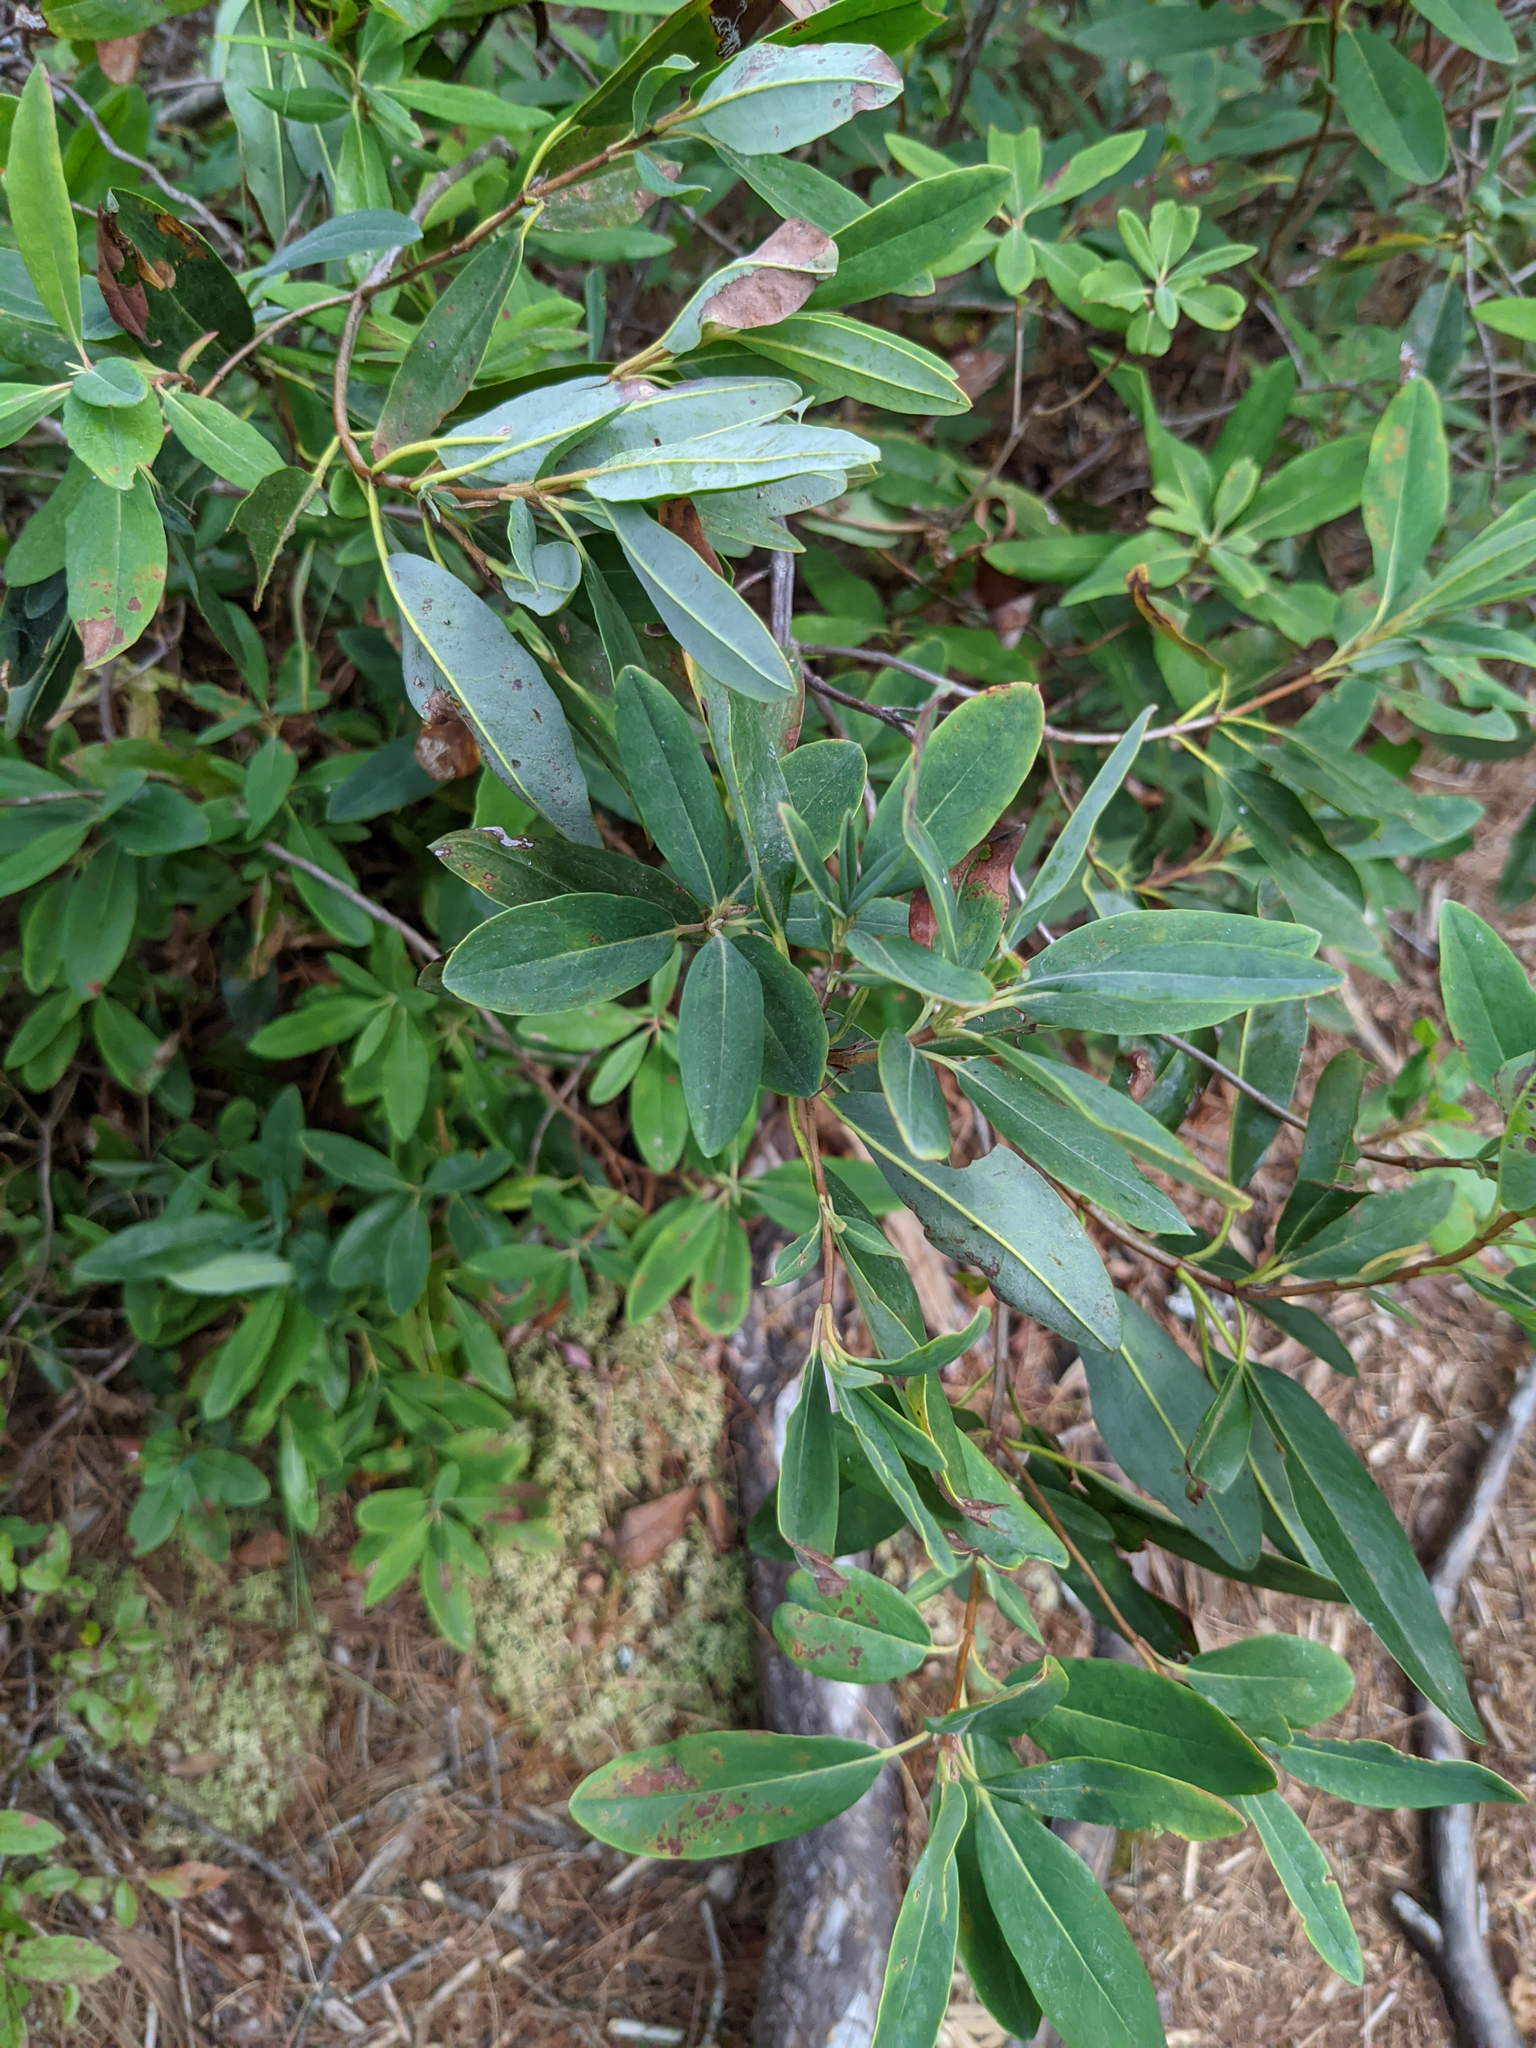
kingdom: Plantae
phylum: Tracheophyta
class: Magnoliopsida
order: Ericales
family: Ericaceae
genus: Kalmia
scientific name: Kalmia angustifolia
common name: Sheep-laurel
